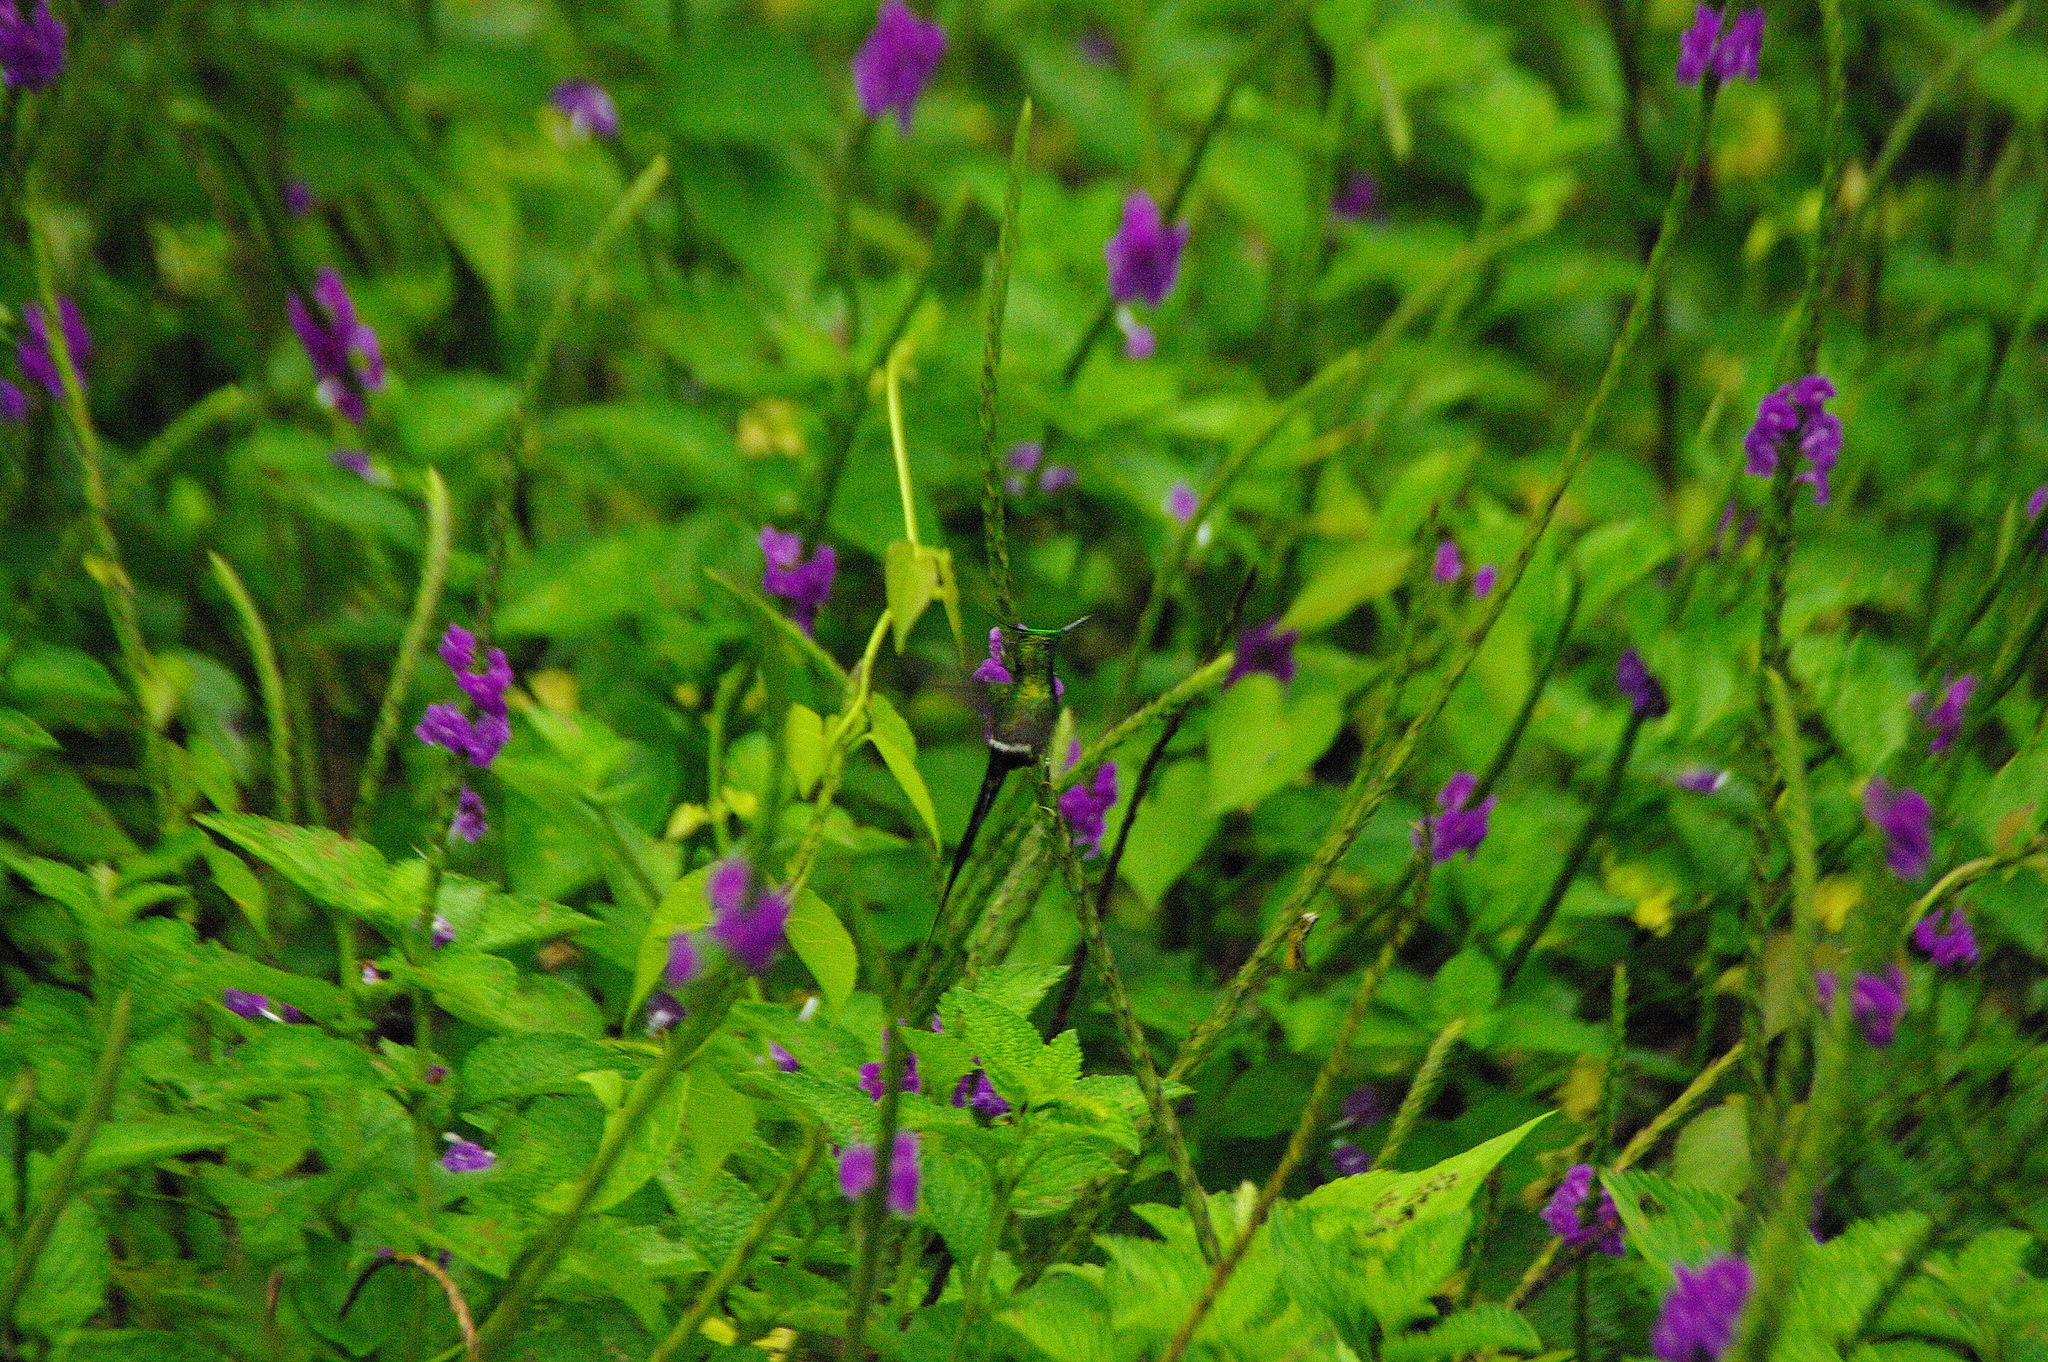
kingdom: Animalia
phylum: Chordata
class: Aves
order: Apodiformes
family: Trochilidae
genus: Discosura
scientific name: Discosura popelairii
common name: Wire-crested thorntail
